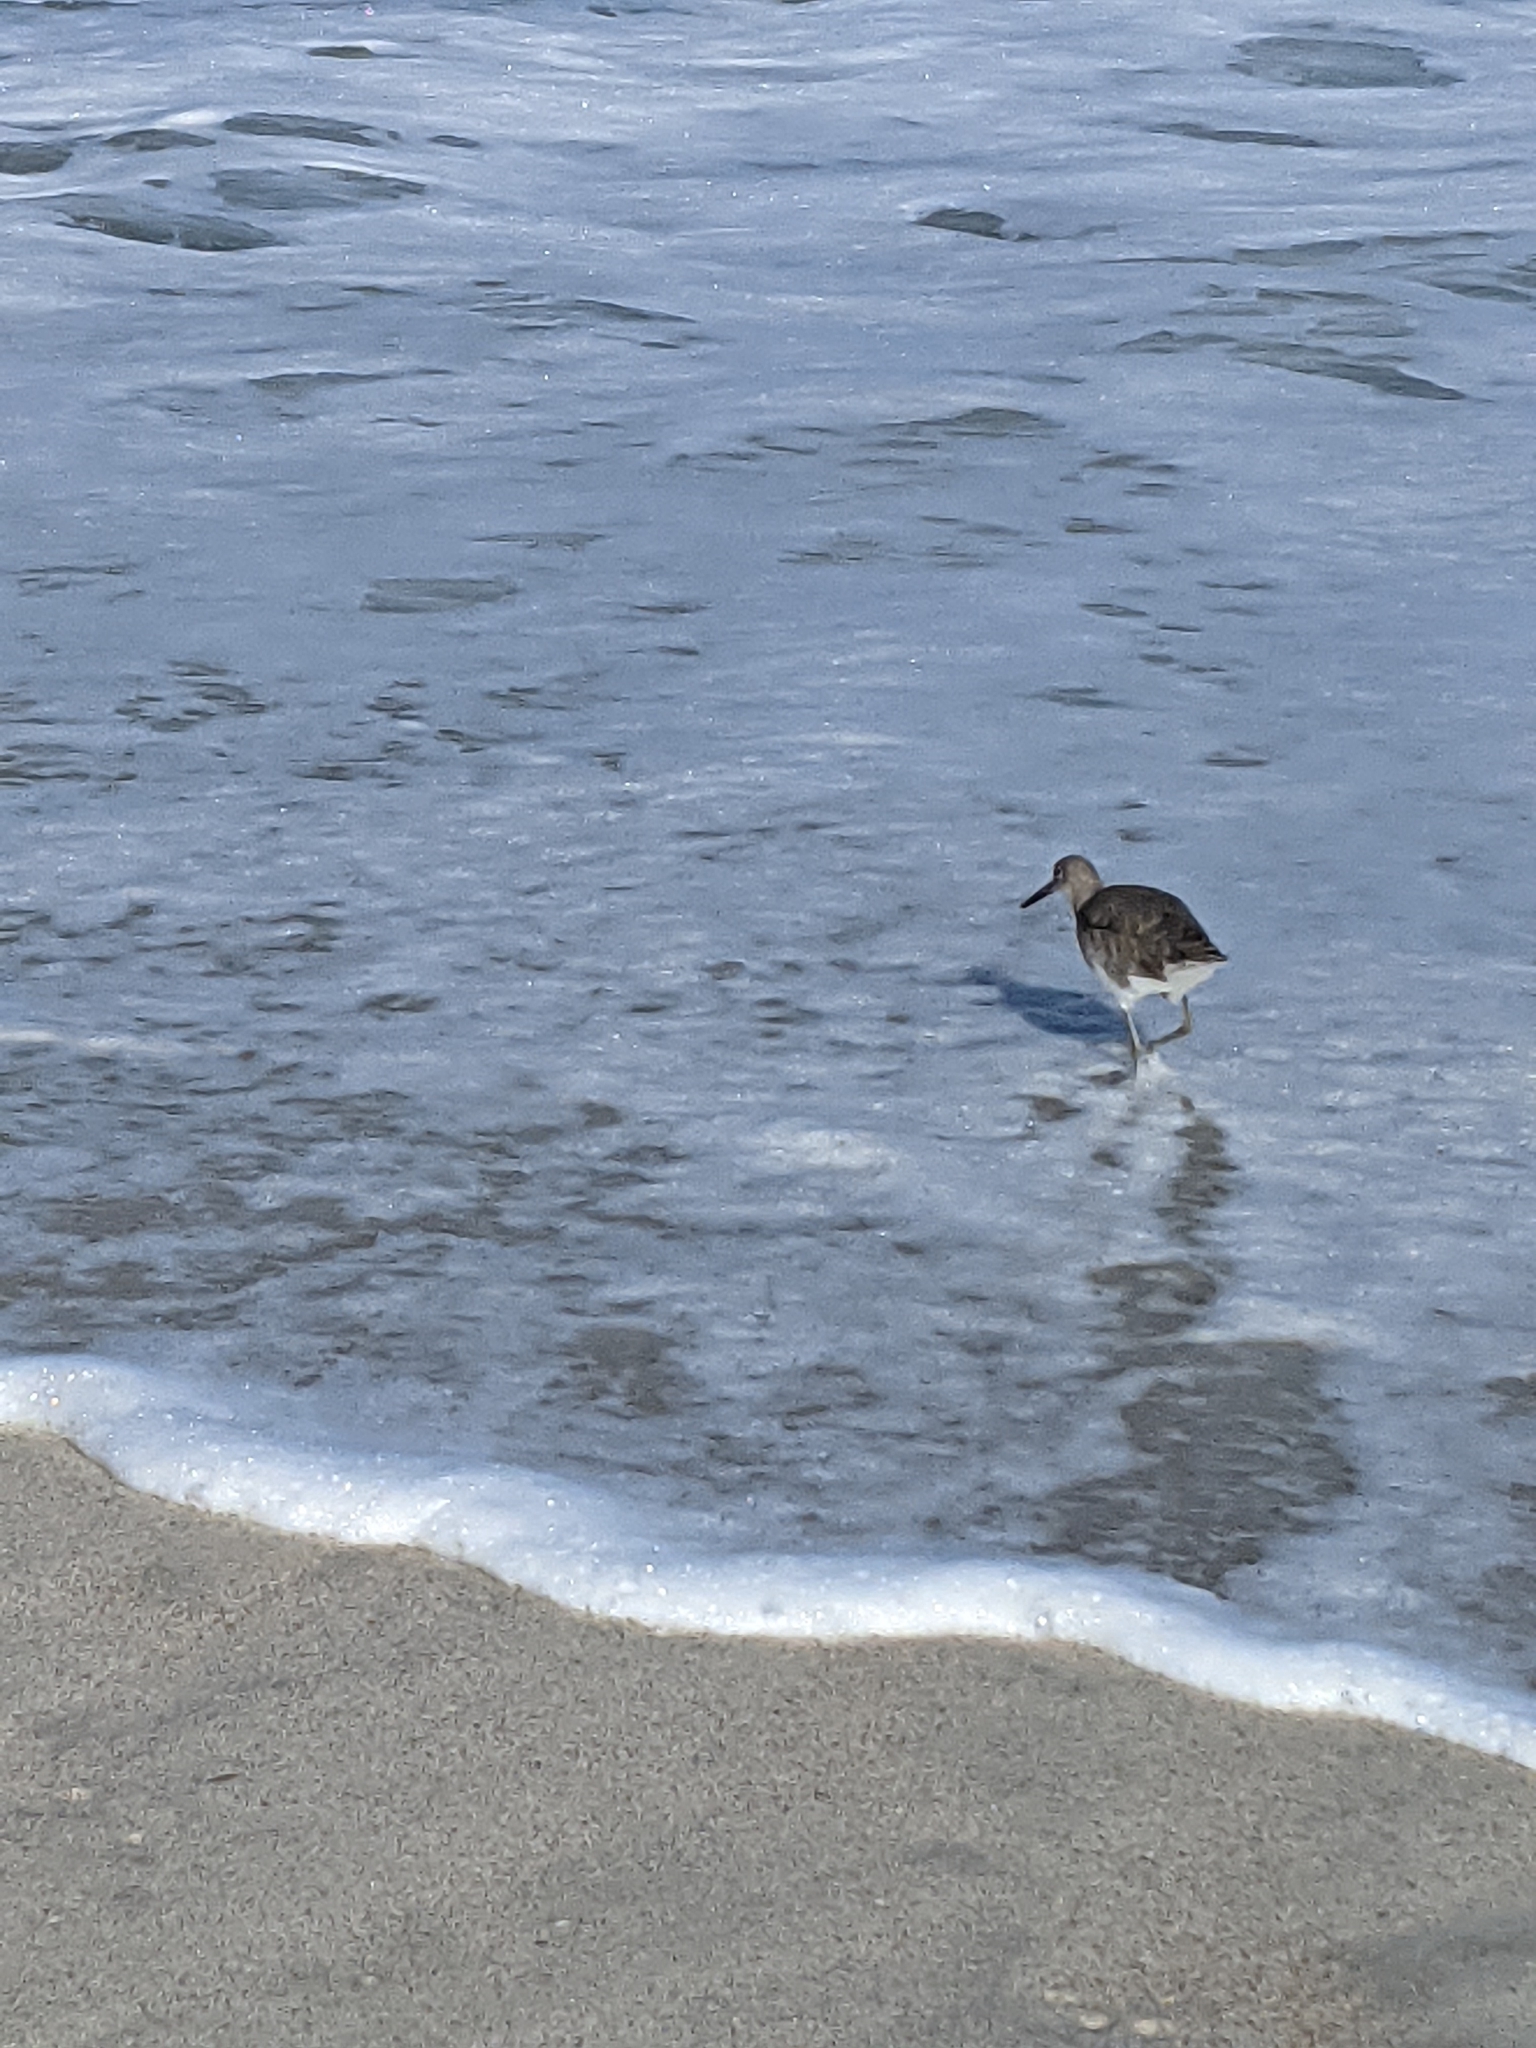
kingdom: Animalia
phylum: Chordata
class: Aves
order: Charadriiformes
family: Scolopacidae
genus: Tringa
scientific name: Tringa semipalmata
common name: Willet
